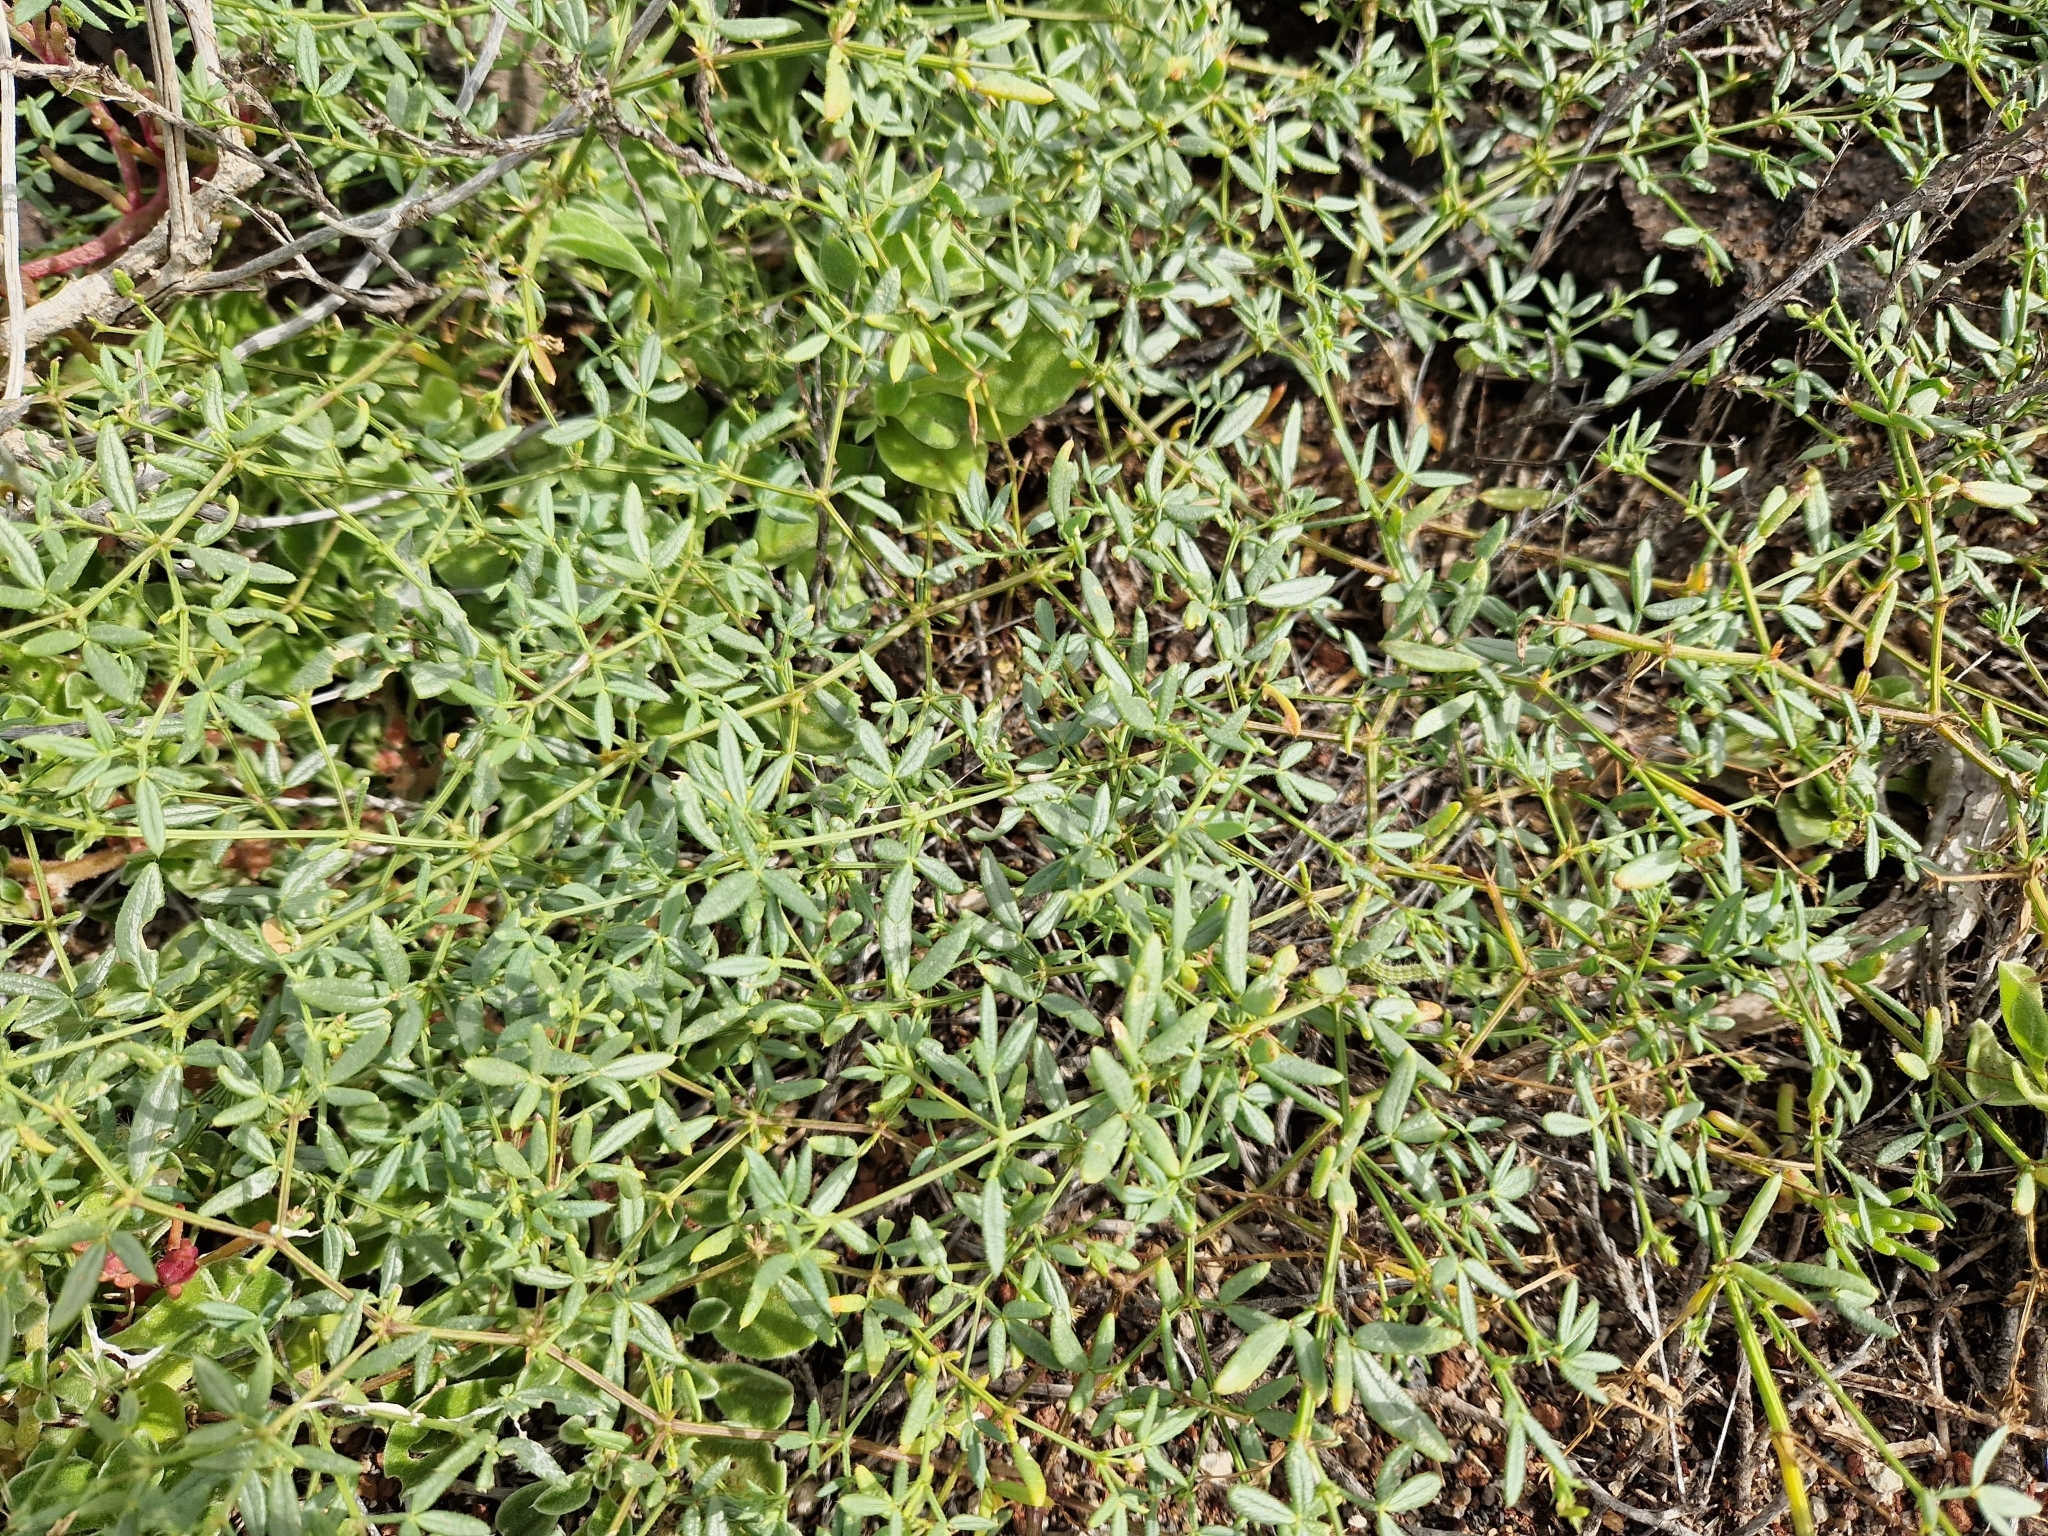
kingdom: Plantae
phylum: Tracheophyta
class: Magnoliopsida
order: Zygophyllales
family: Zygophyllaceae
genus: Fagonia
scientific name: Fagonia cretica
